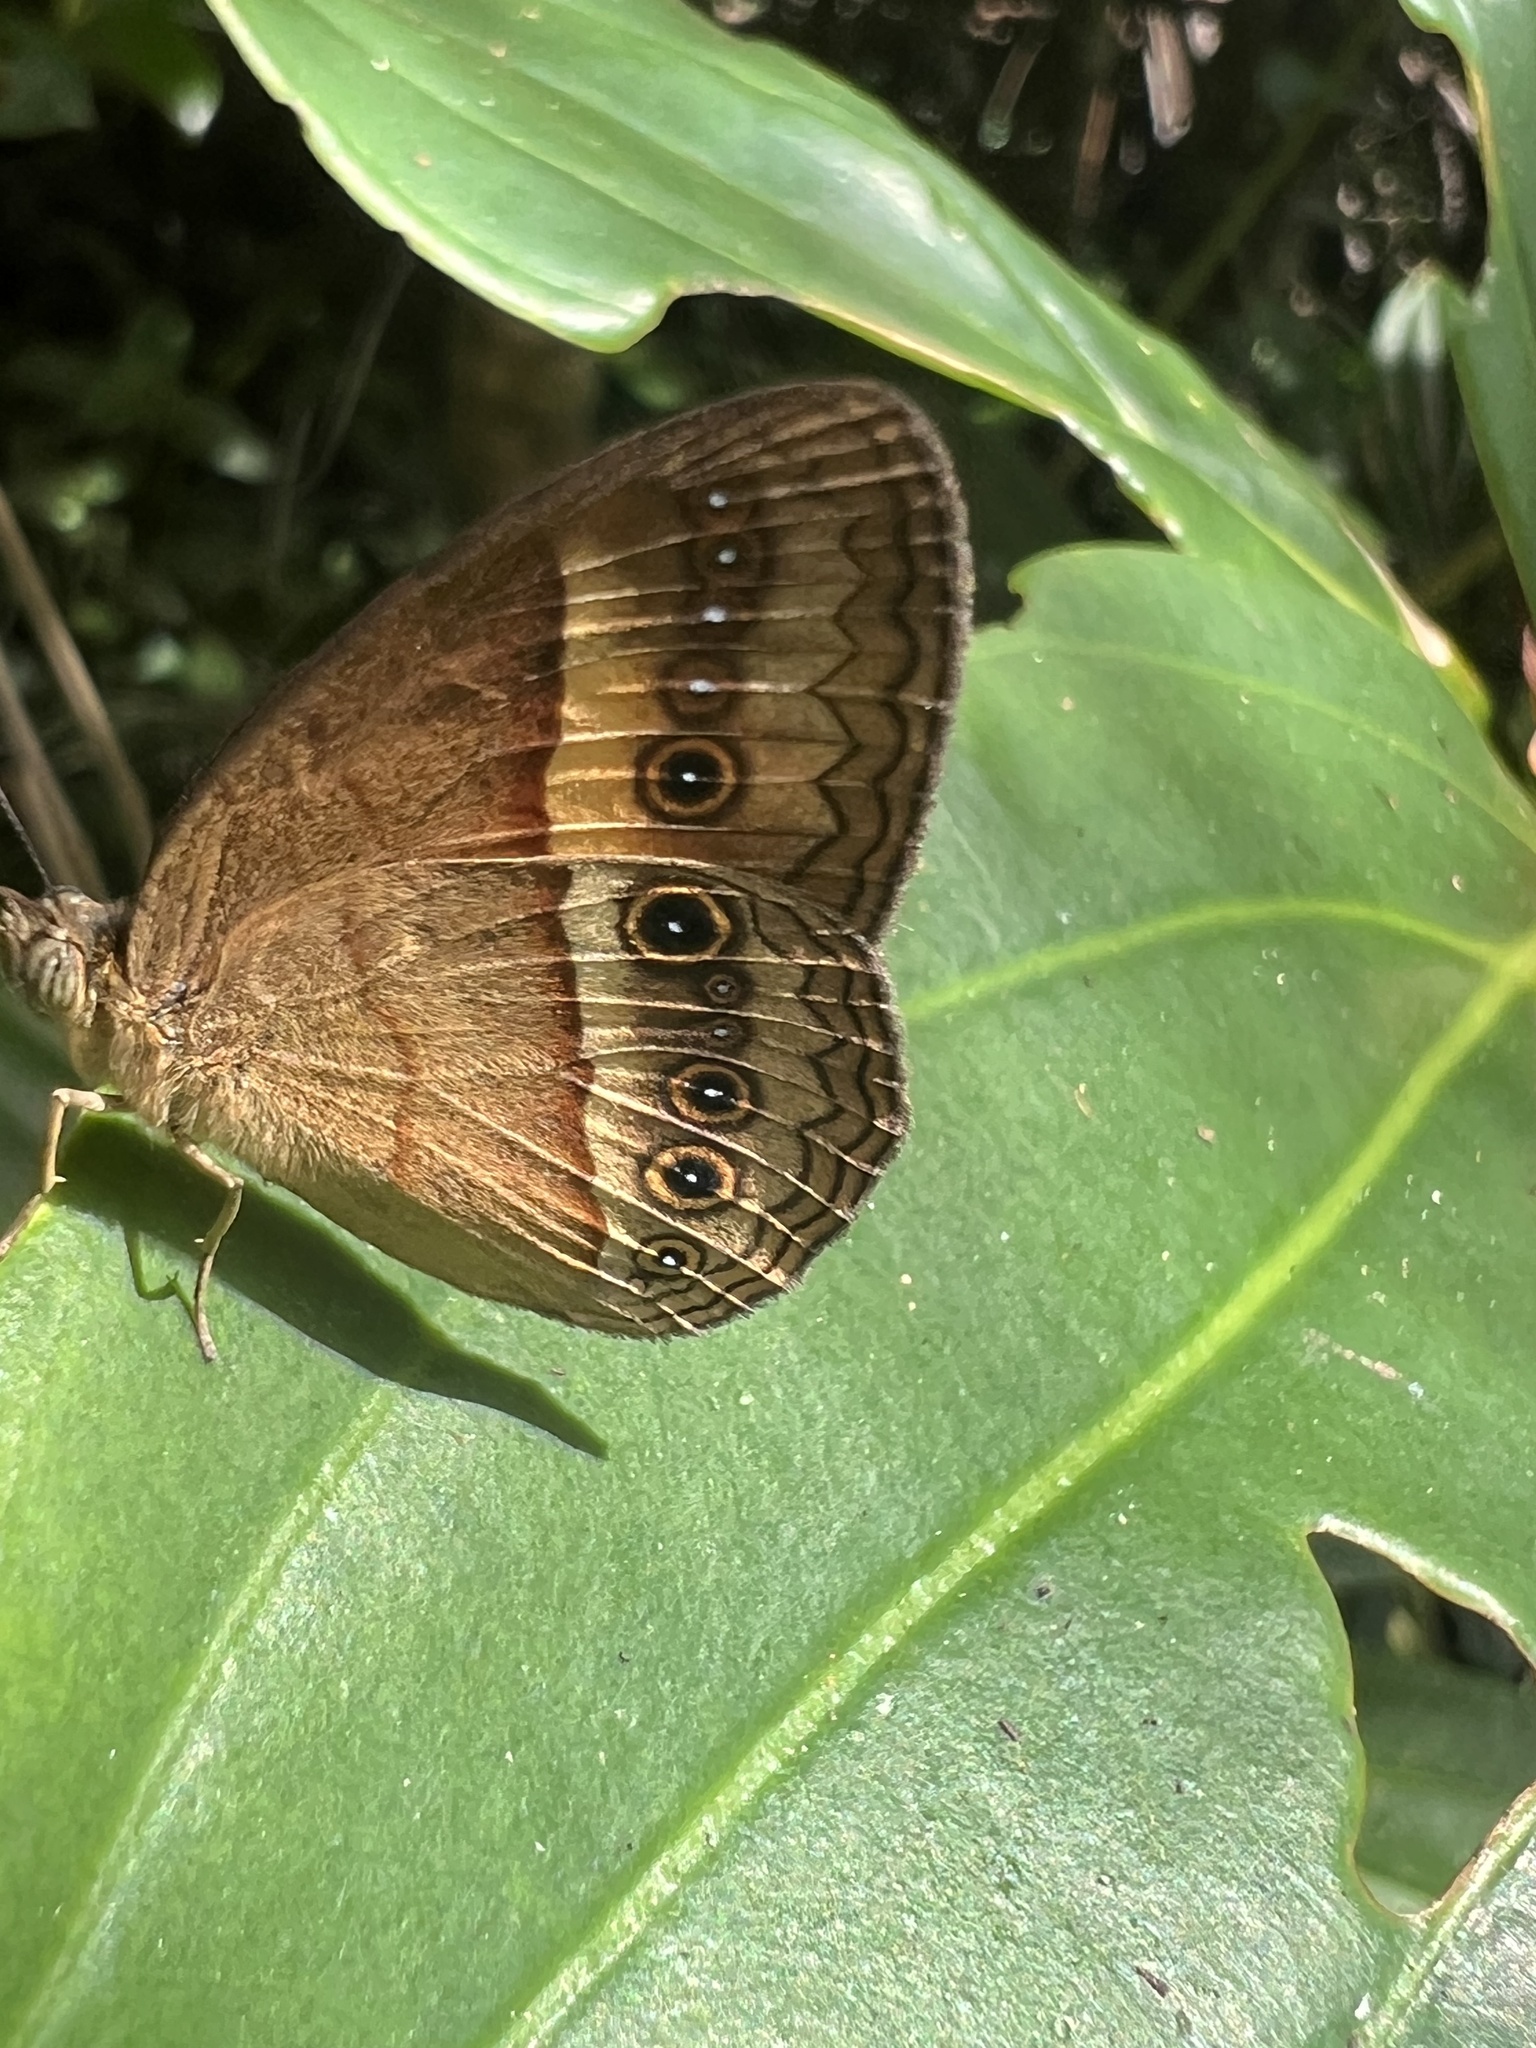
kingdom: Animalia
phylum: Arthropoda
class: Insecta
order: Lepidoptera
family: Nymphalidae
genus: Mycalesis
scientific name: Mycalesis terminus
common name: Orange bushbrown
